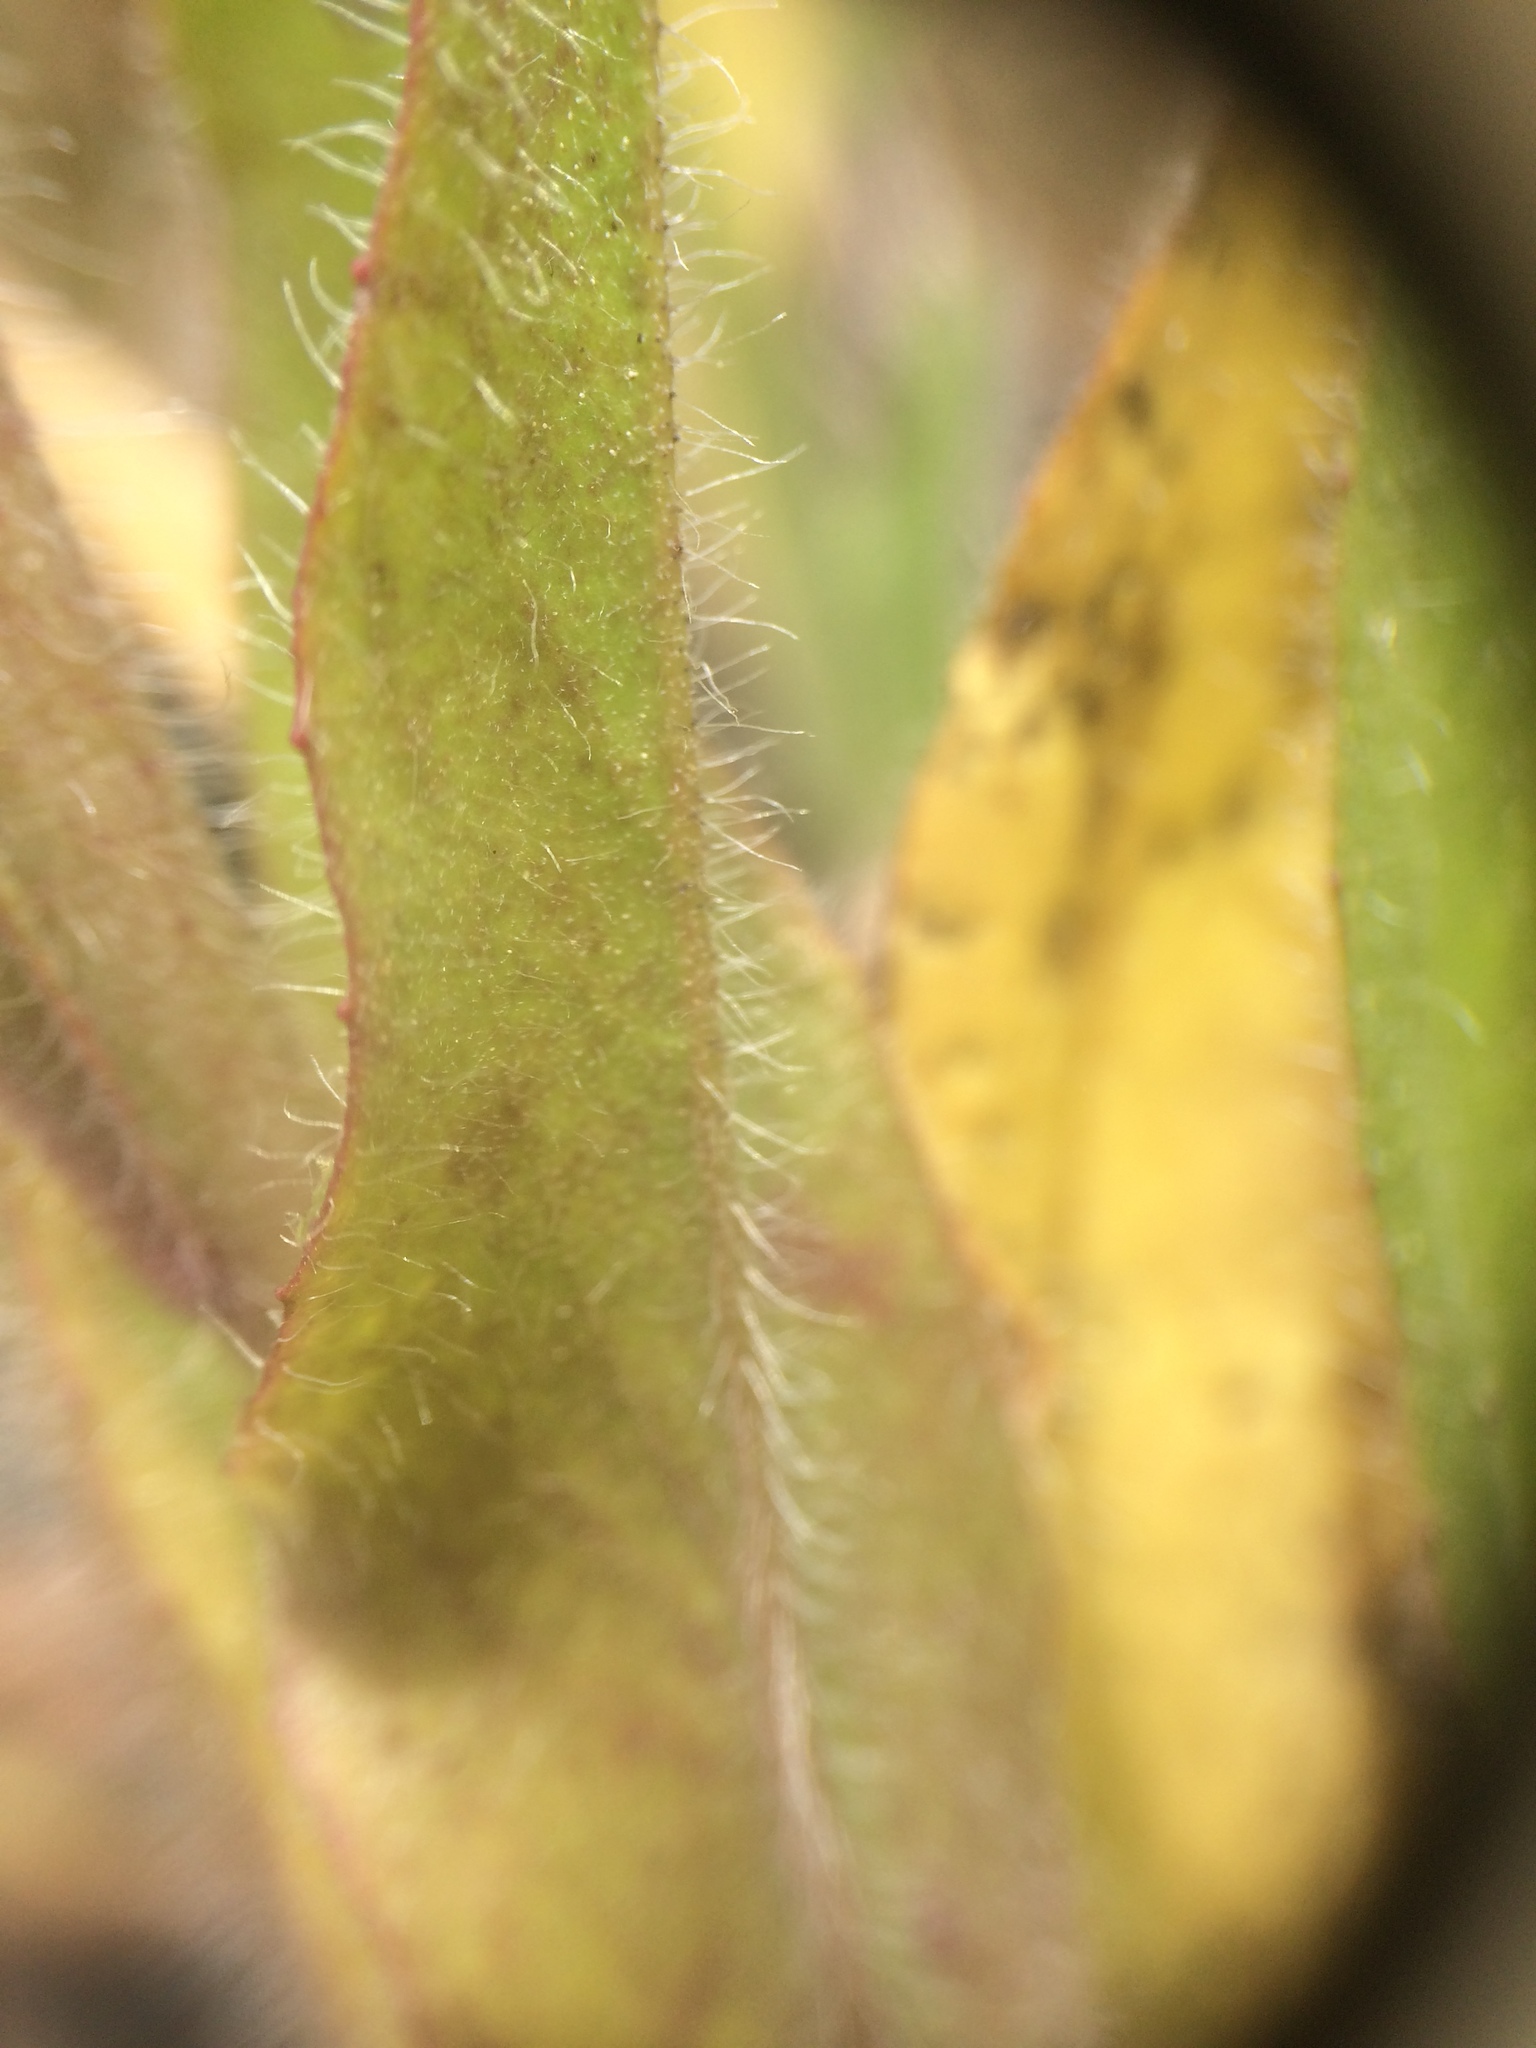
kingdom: Plantae
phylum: Tracheophyta
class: Magnoliopsida
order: Asterales
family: Asteraceae
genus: Pilosella
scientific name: Pilosella caespitosa
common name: Yellow fox-and-cubs
